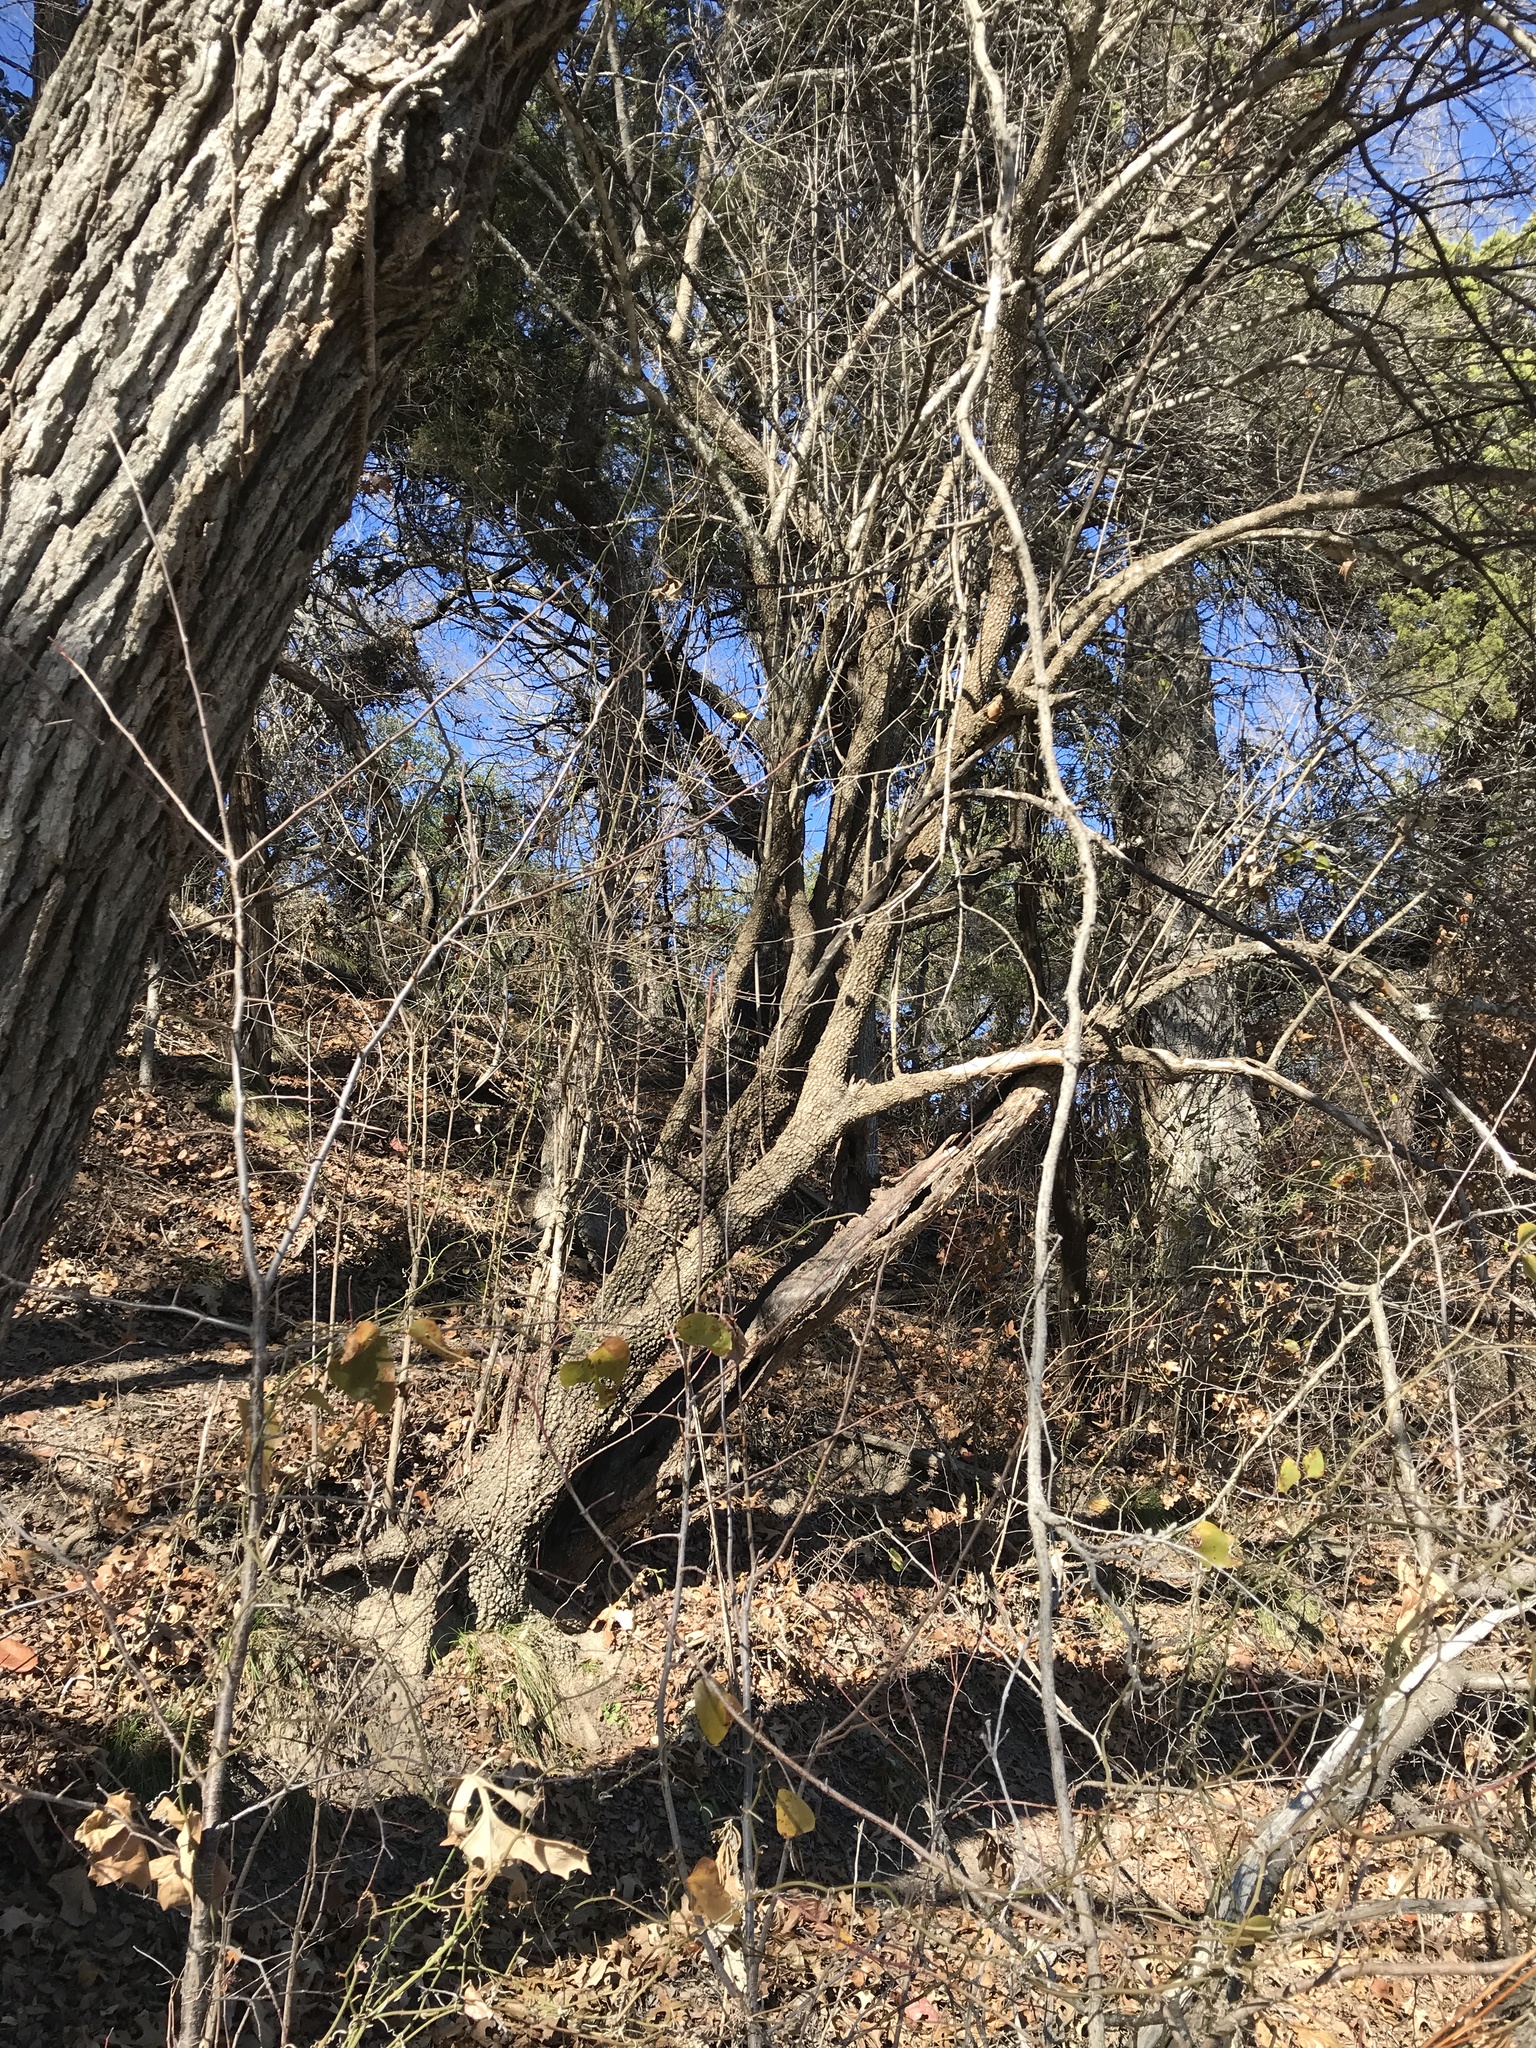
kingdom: Plantae
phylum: Tracheophyta
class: Magnoliopsida
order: Dipsacales
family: Viburnaceae
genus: Viburnum
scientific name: Viburnum rufidulum
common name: Blue haw
